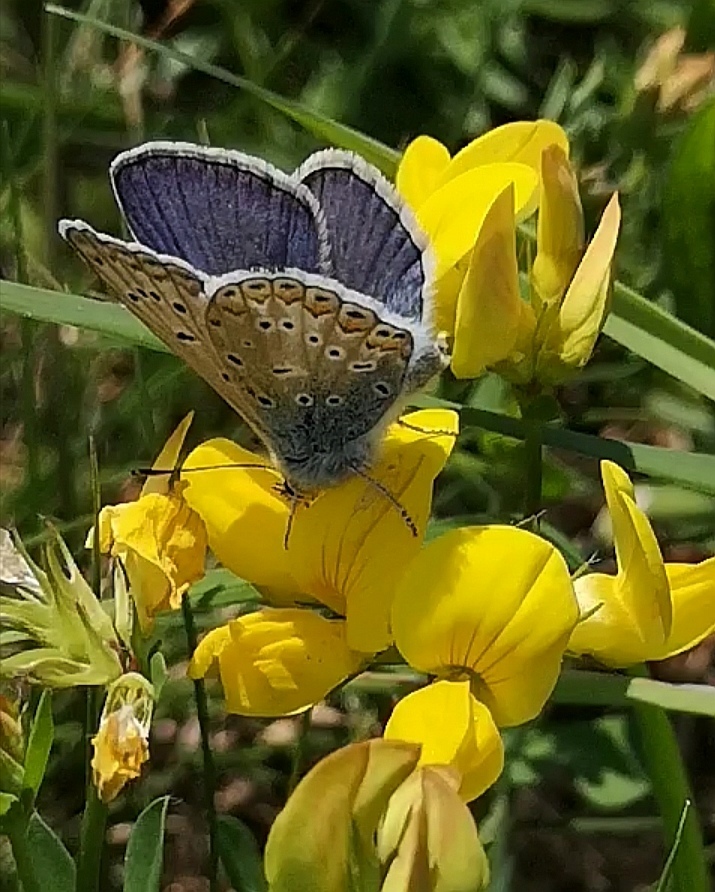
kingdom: Animalia
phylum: Arthropoda
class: Insecta
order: Lepidoptera
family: Lycaenidae
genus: Polyommatus
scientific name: Polyommatus icarus
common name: Common blue
